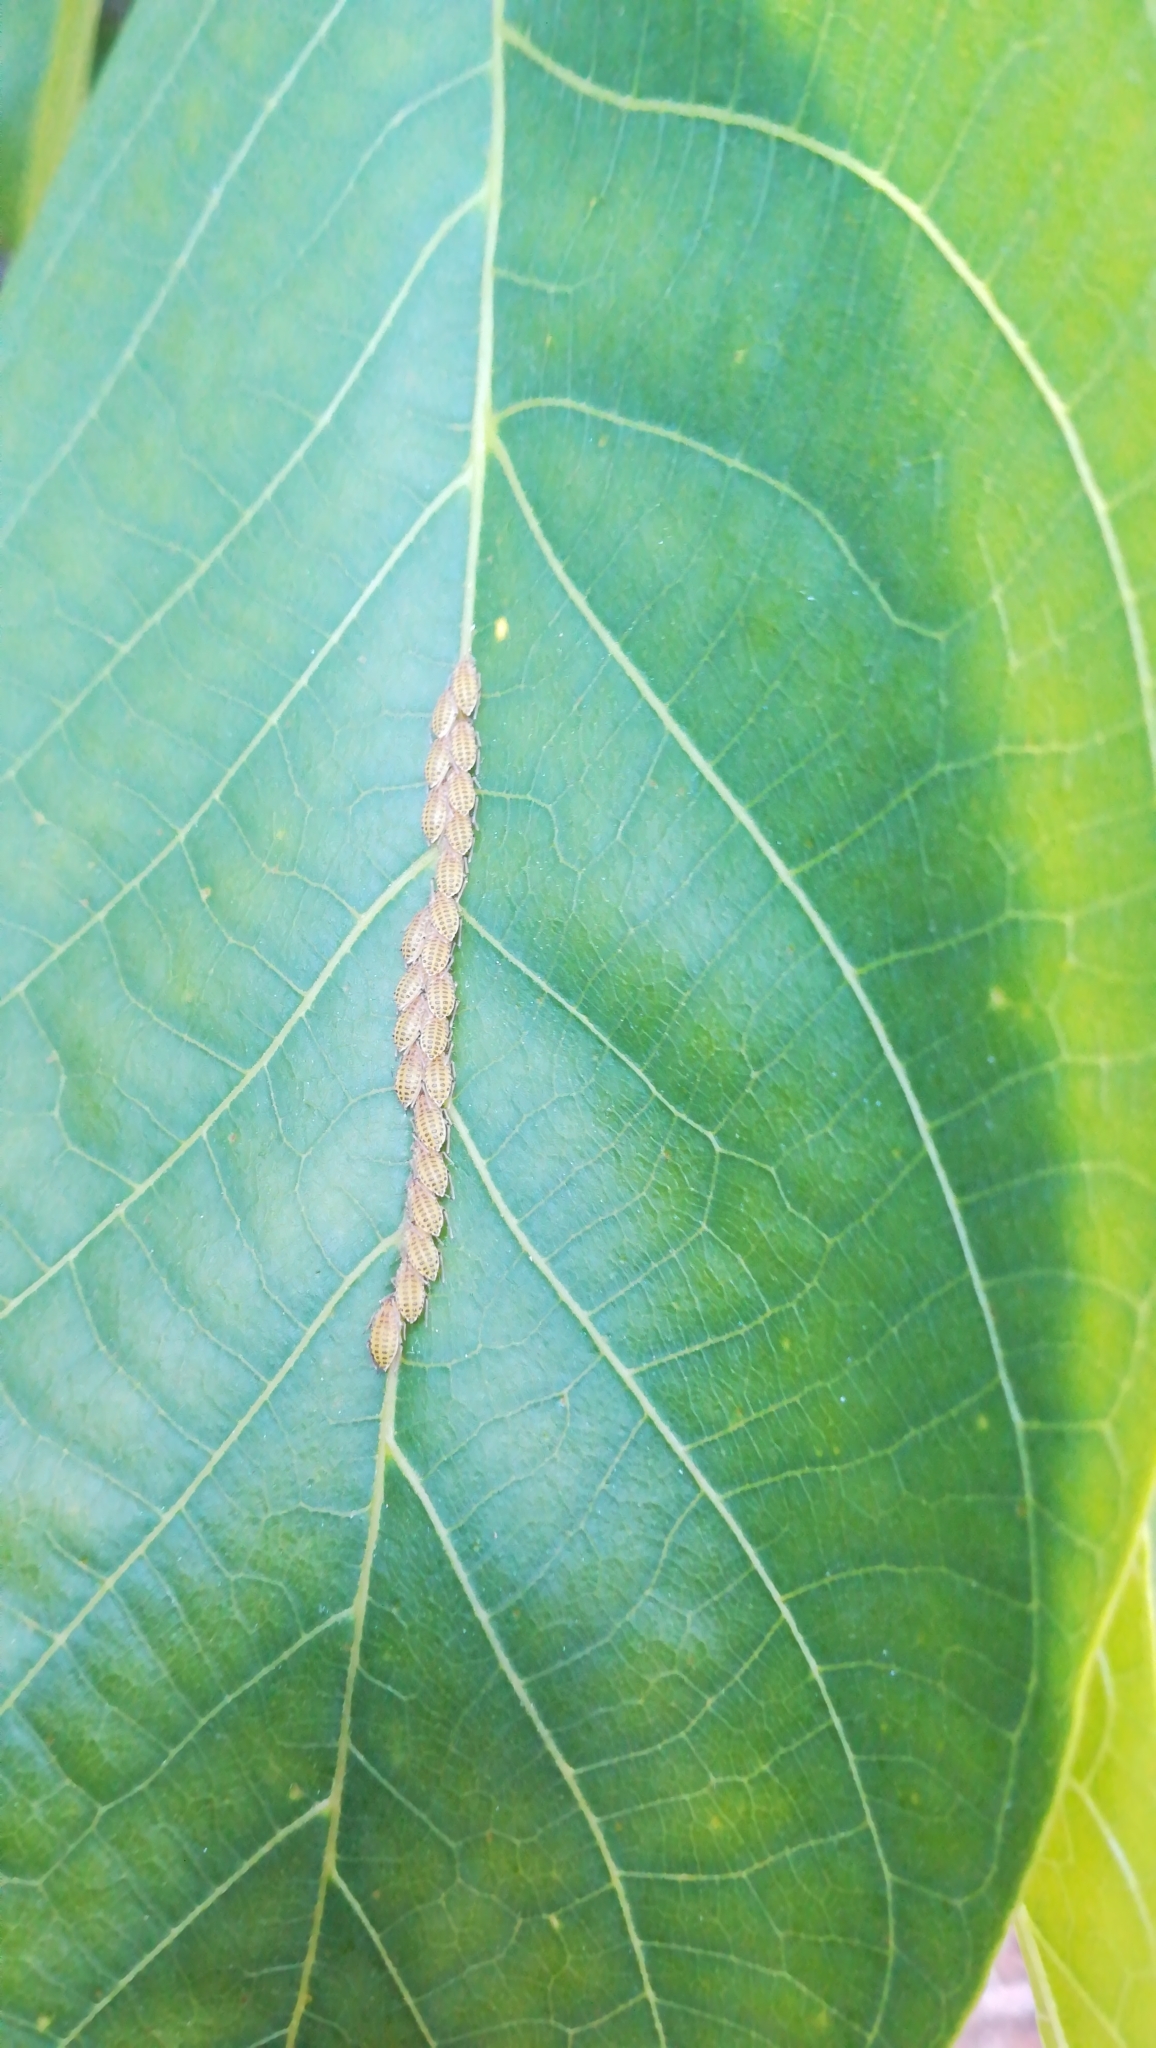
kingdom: Animalia
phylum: Arthropoda
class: Insecta
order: Hemiptera
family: Aphididae
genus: Panaphis
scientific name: Panaphis juglandis
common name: Large walnut aphid
